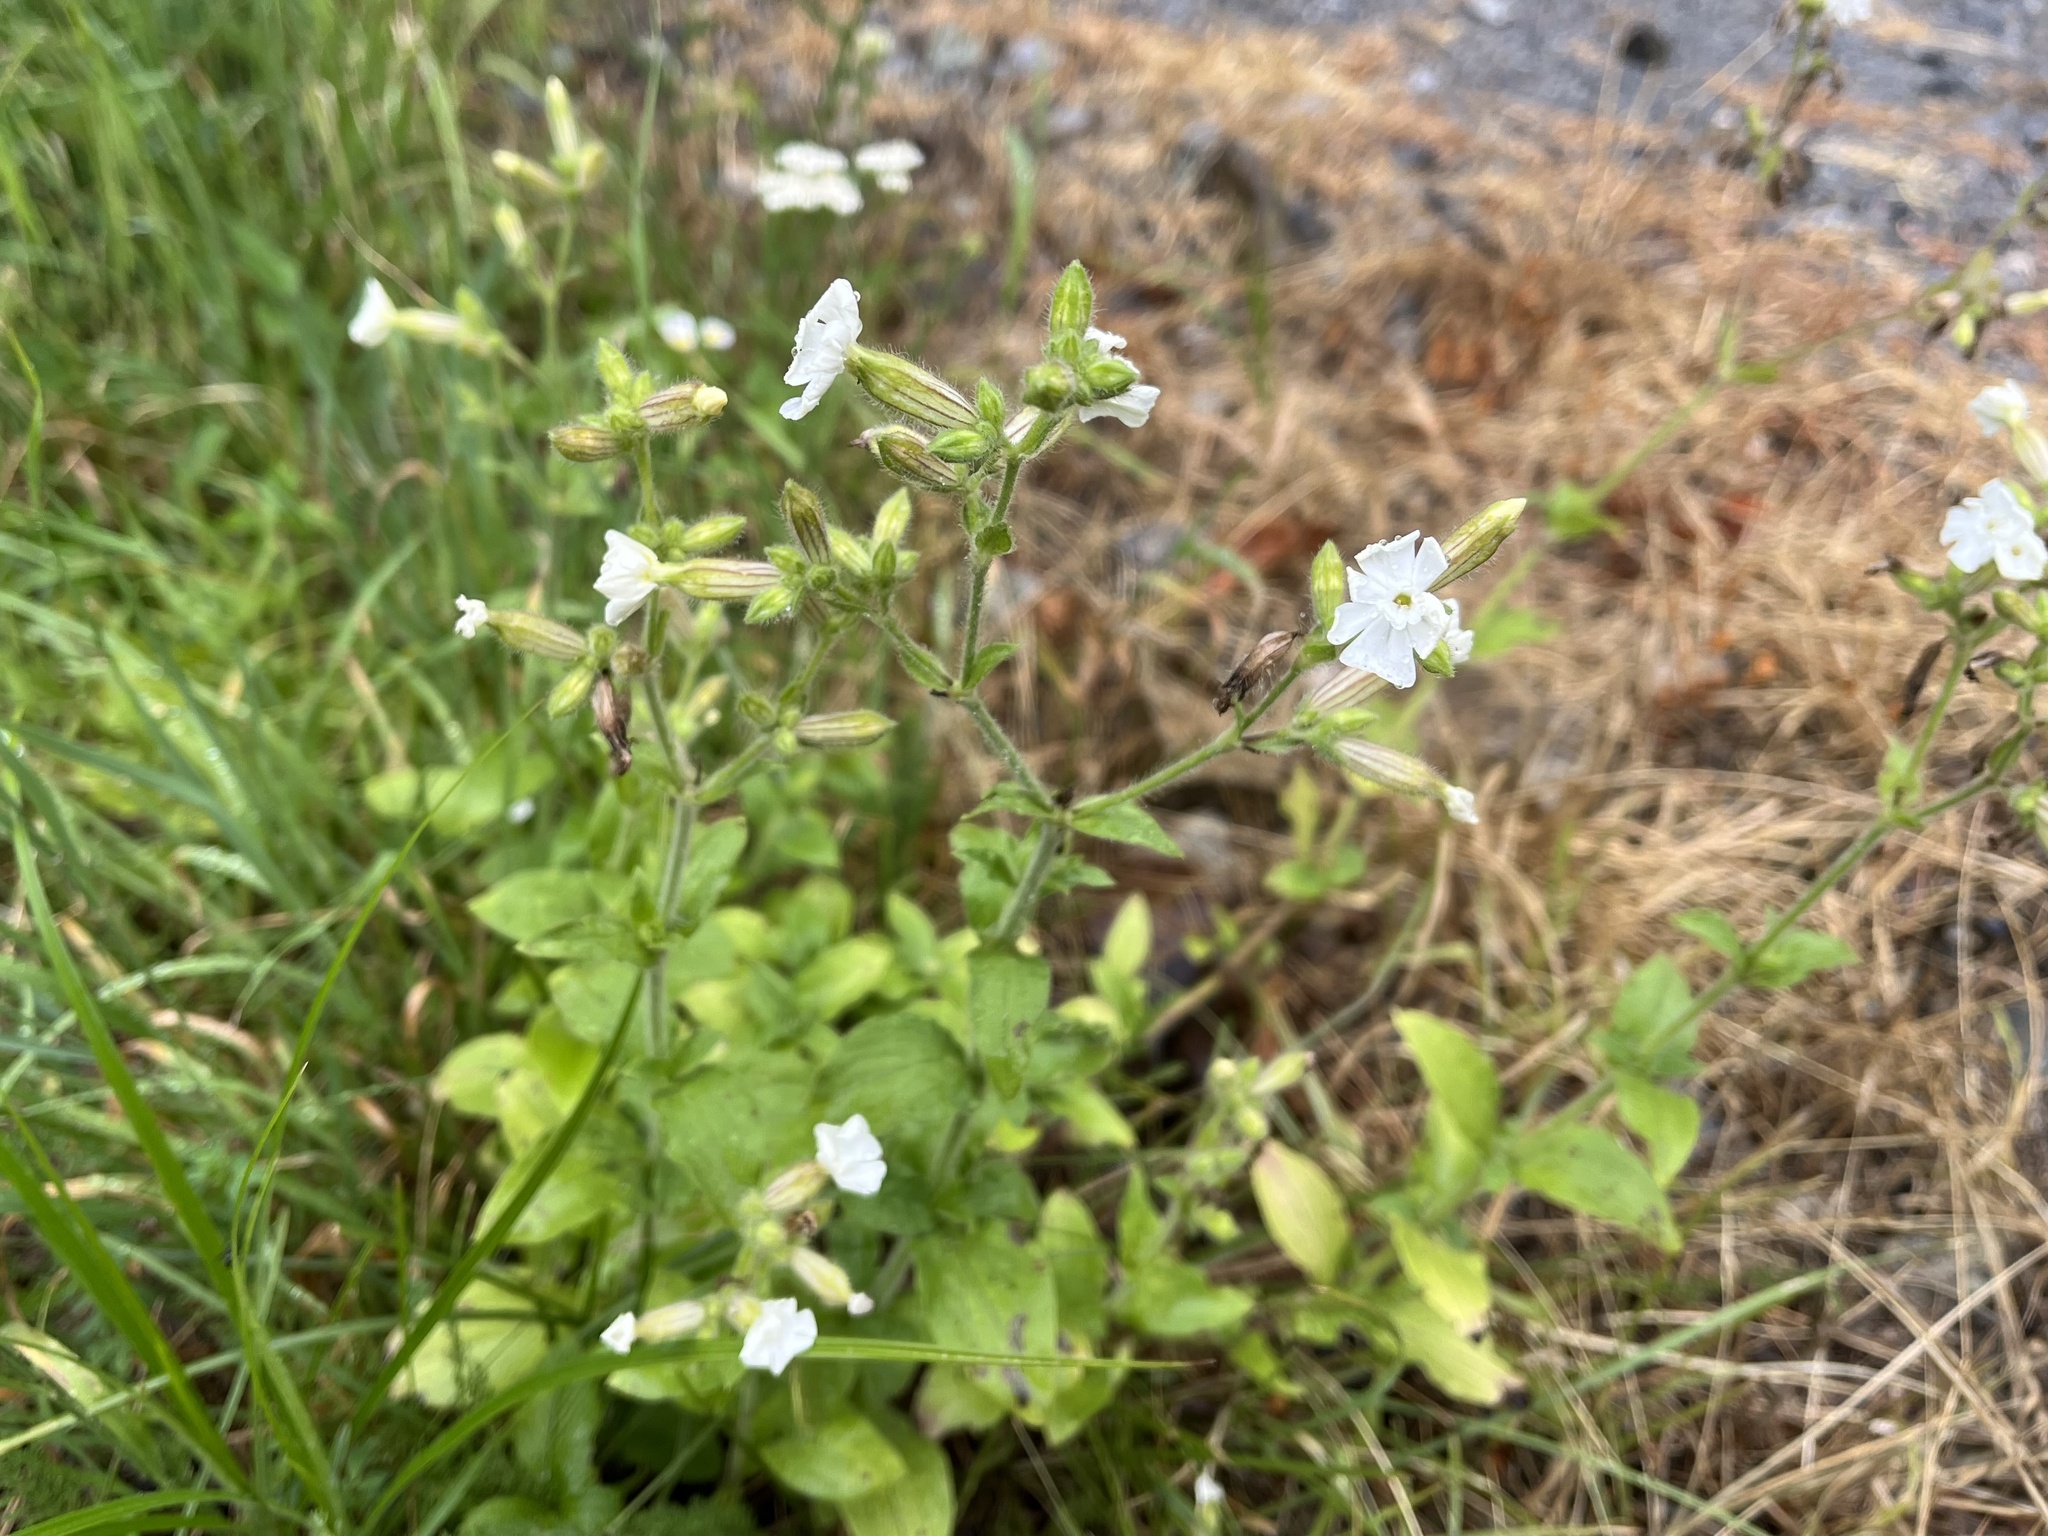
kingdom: Plantae
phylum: Tracheophyta
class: Magnoliopsida
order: Caryophyllales
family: Caryophyllaceae
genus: Silene
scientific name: Silene latifolia
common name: White campion
